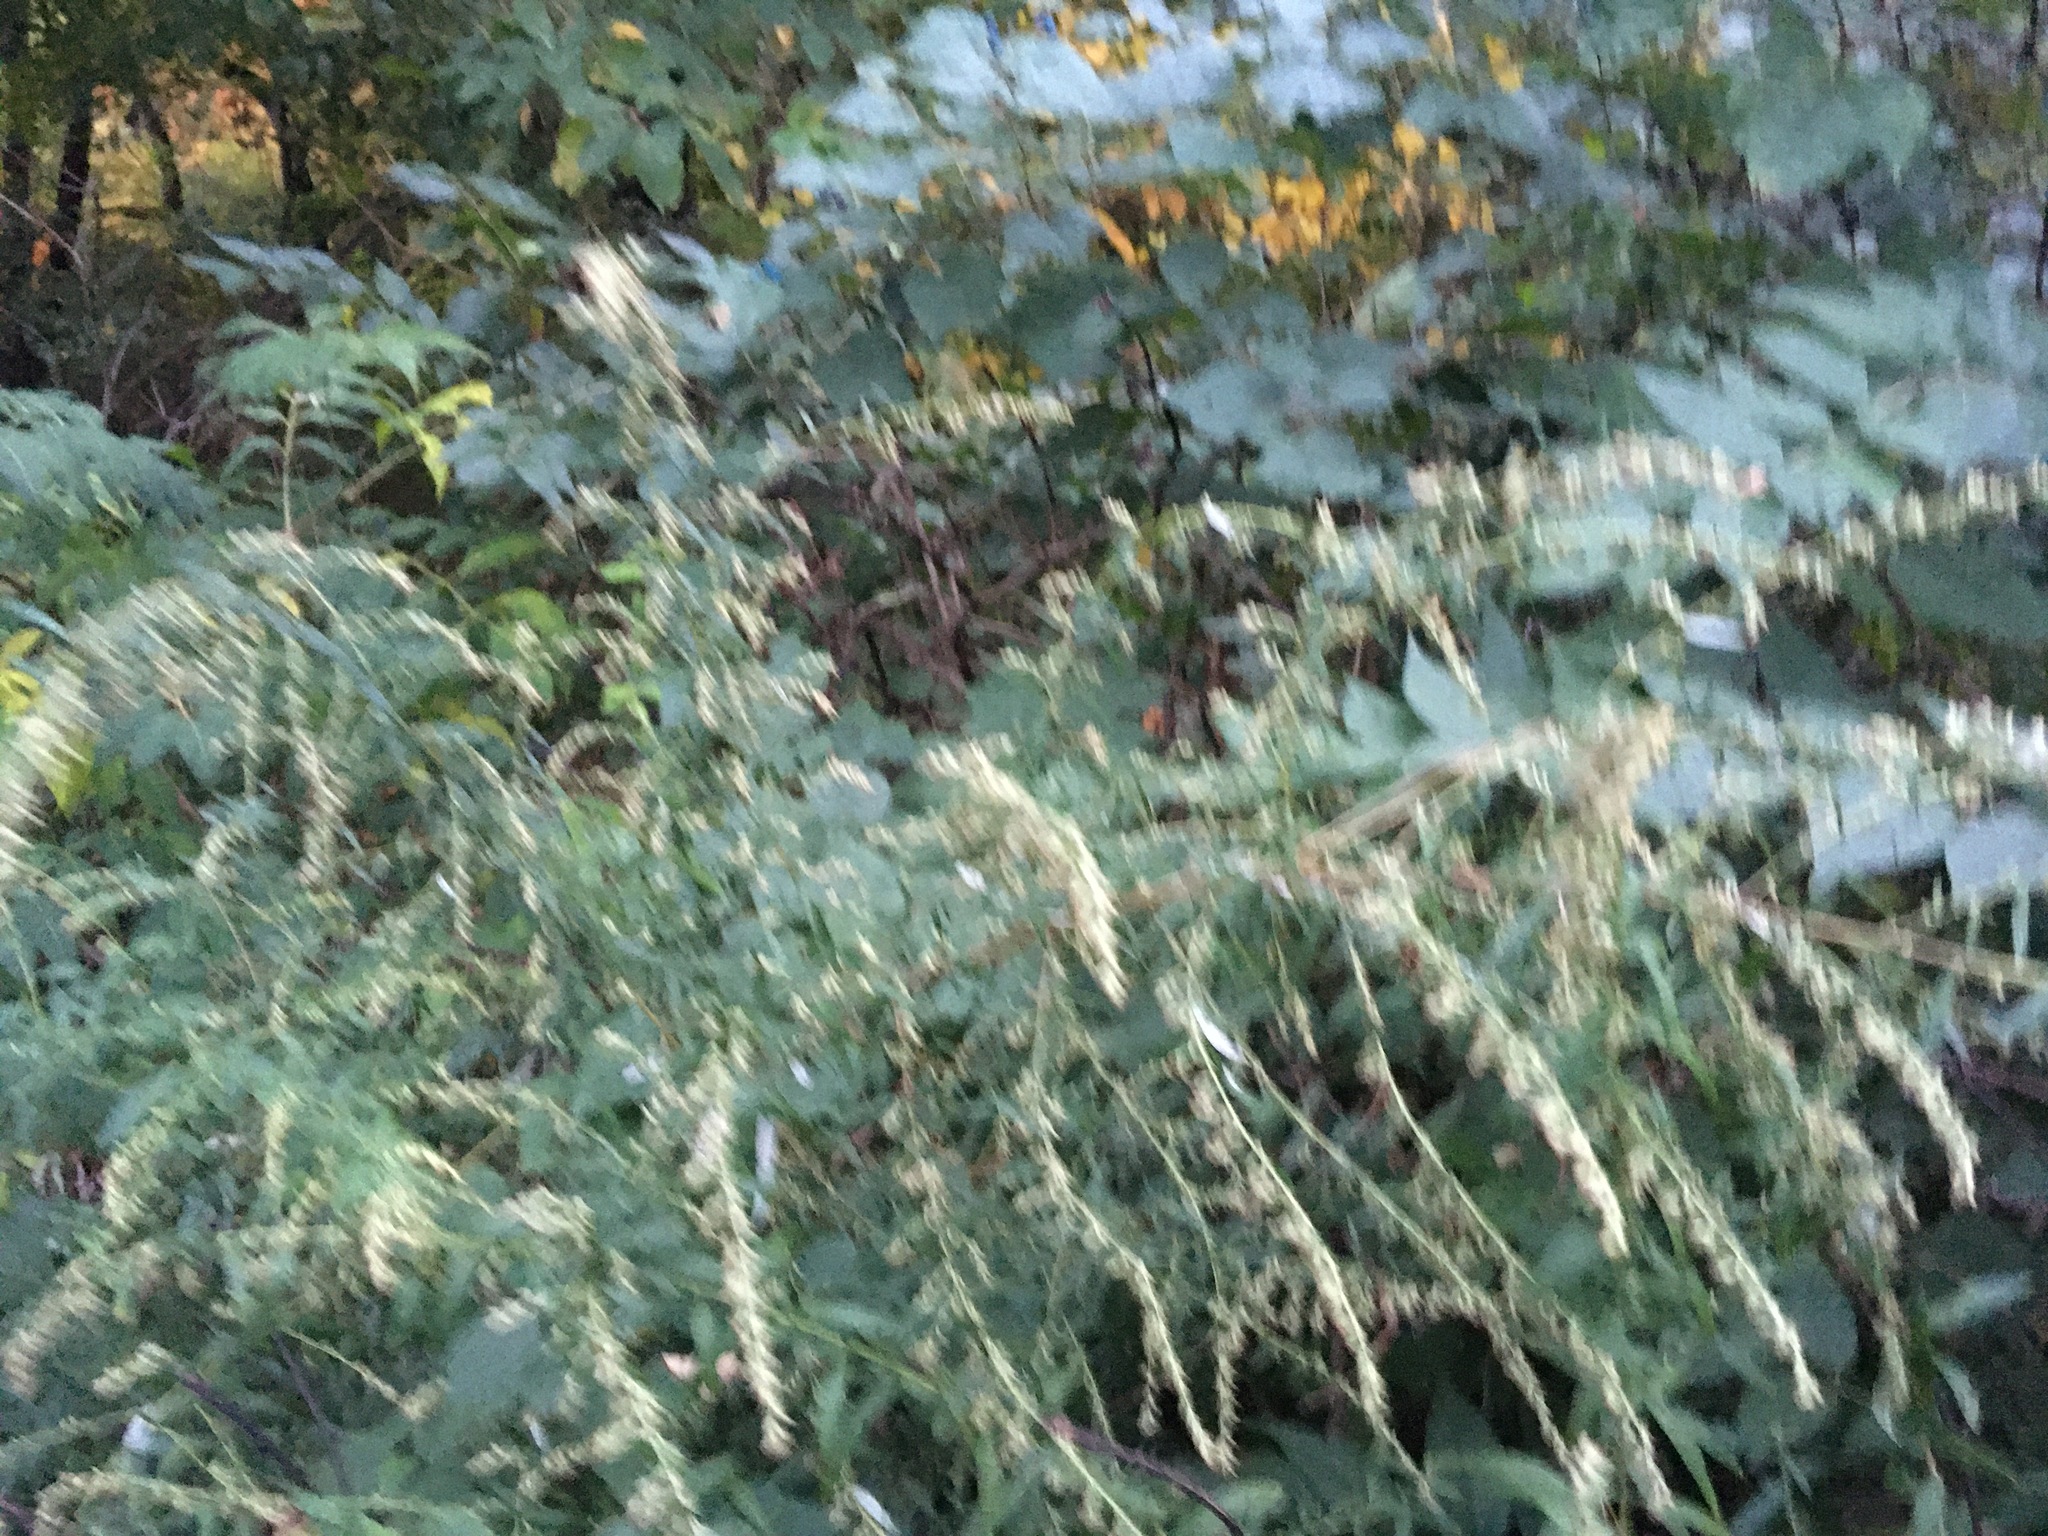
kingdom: Plantae
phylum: Tracheophyta
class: Magnoliopsida
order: Asterales
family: Asteraceae
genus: Artemisia
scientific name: Artemisia vulgaris
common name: Mugwort
